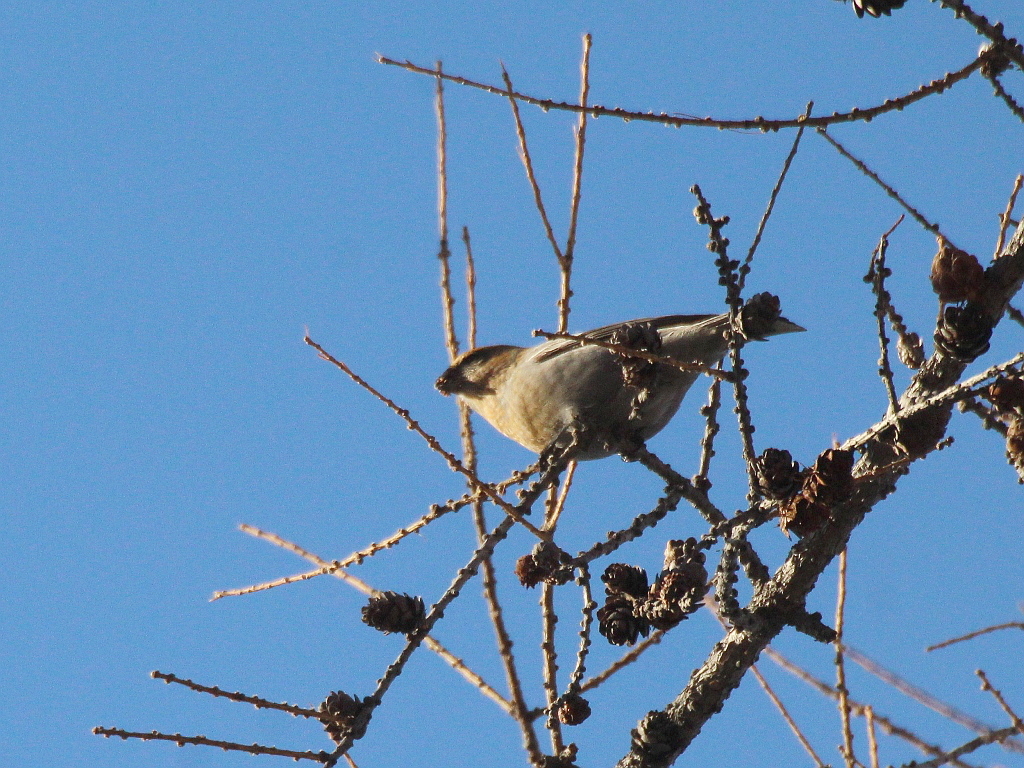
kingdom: Animalia
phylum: Chordata
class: Aves
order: Passeriformes
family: Fringillidae
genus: Pinicola
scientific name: Pinicola enucleator
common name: Pine grosbeak
